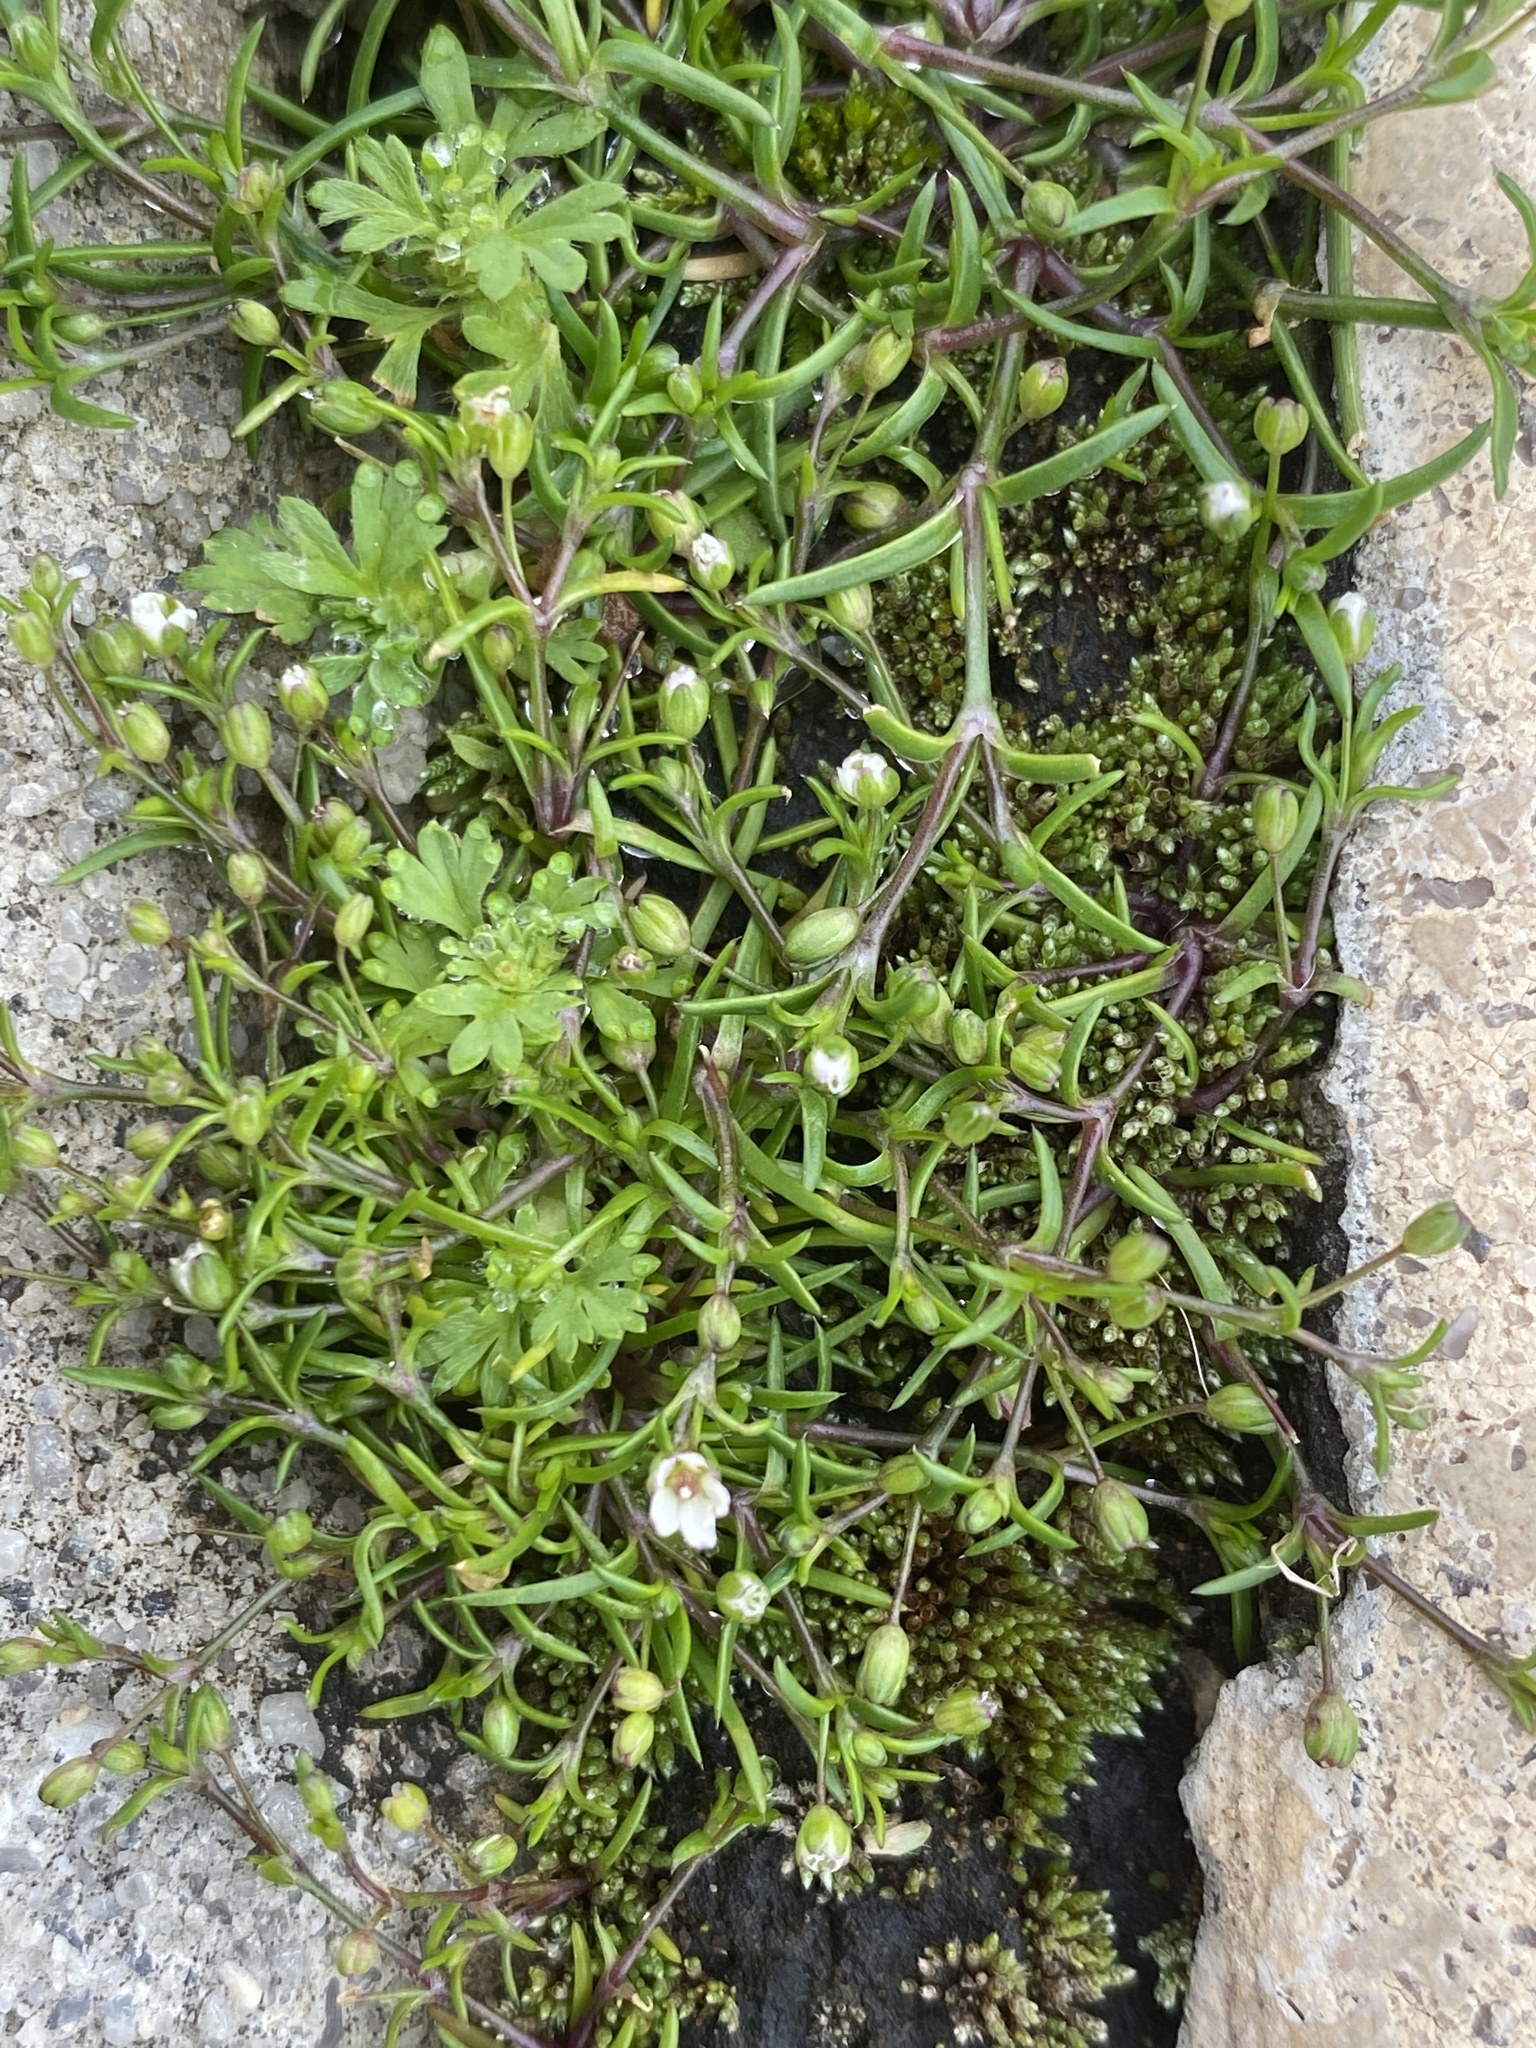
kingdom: Plantae
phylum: Tracheophyta
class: Magnoliopsida
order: Caryophyllales
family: Caryophyllaceae
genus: Sagina
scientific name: Sagina decumbens
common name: Decumbent pearlwort
